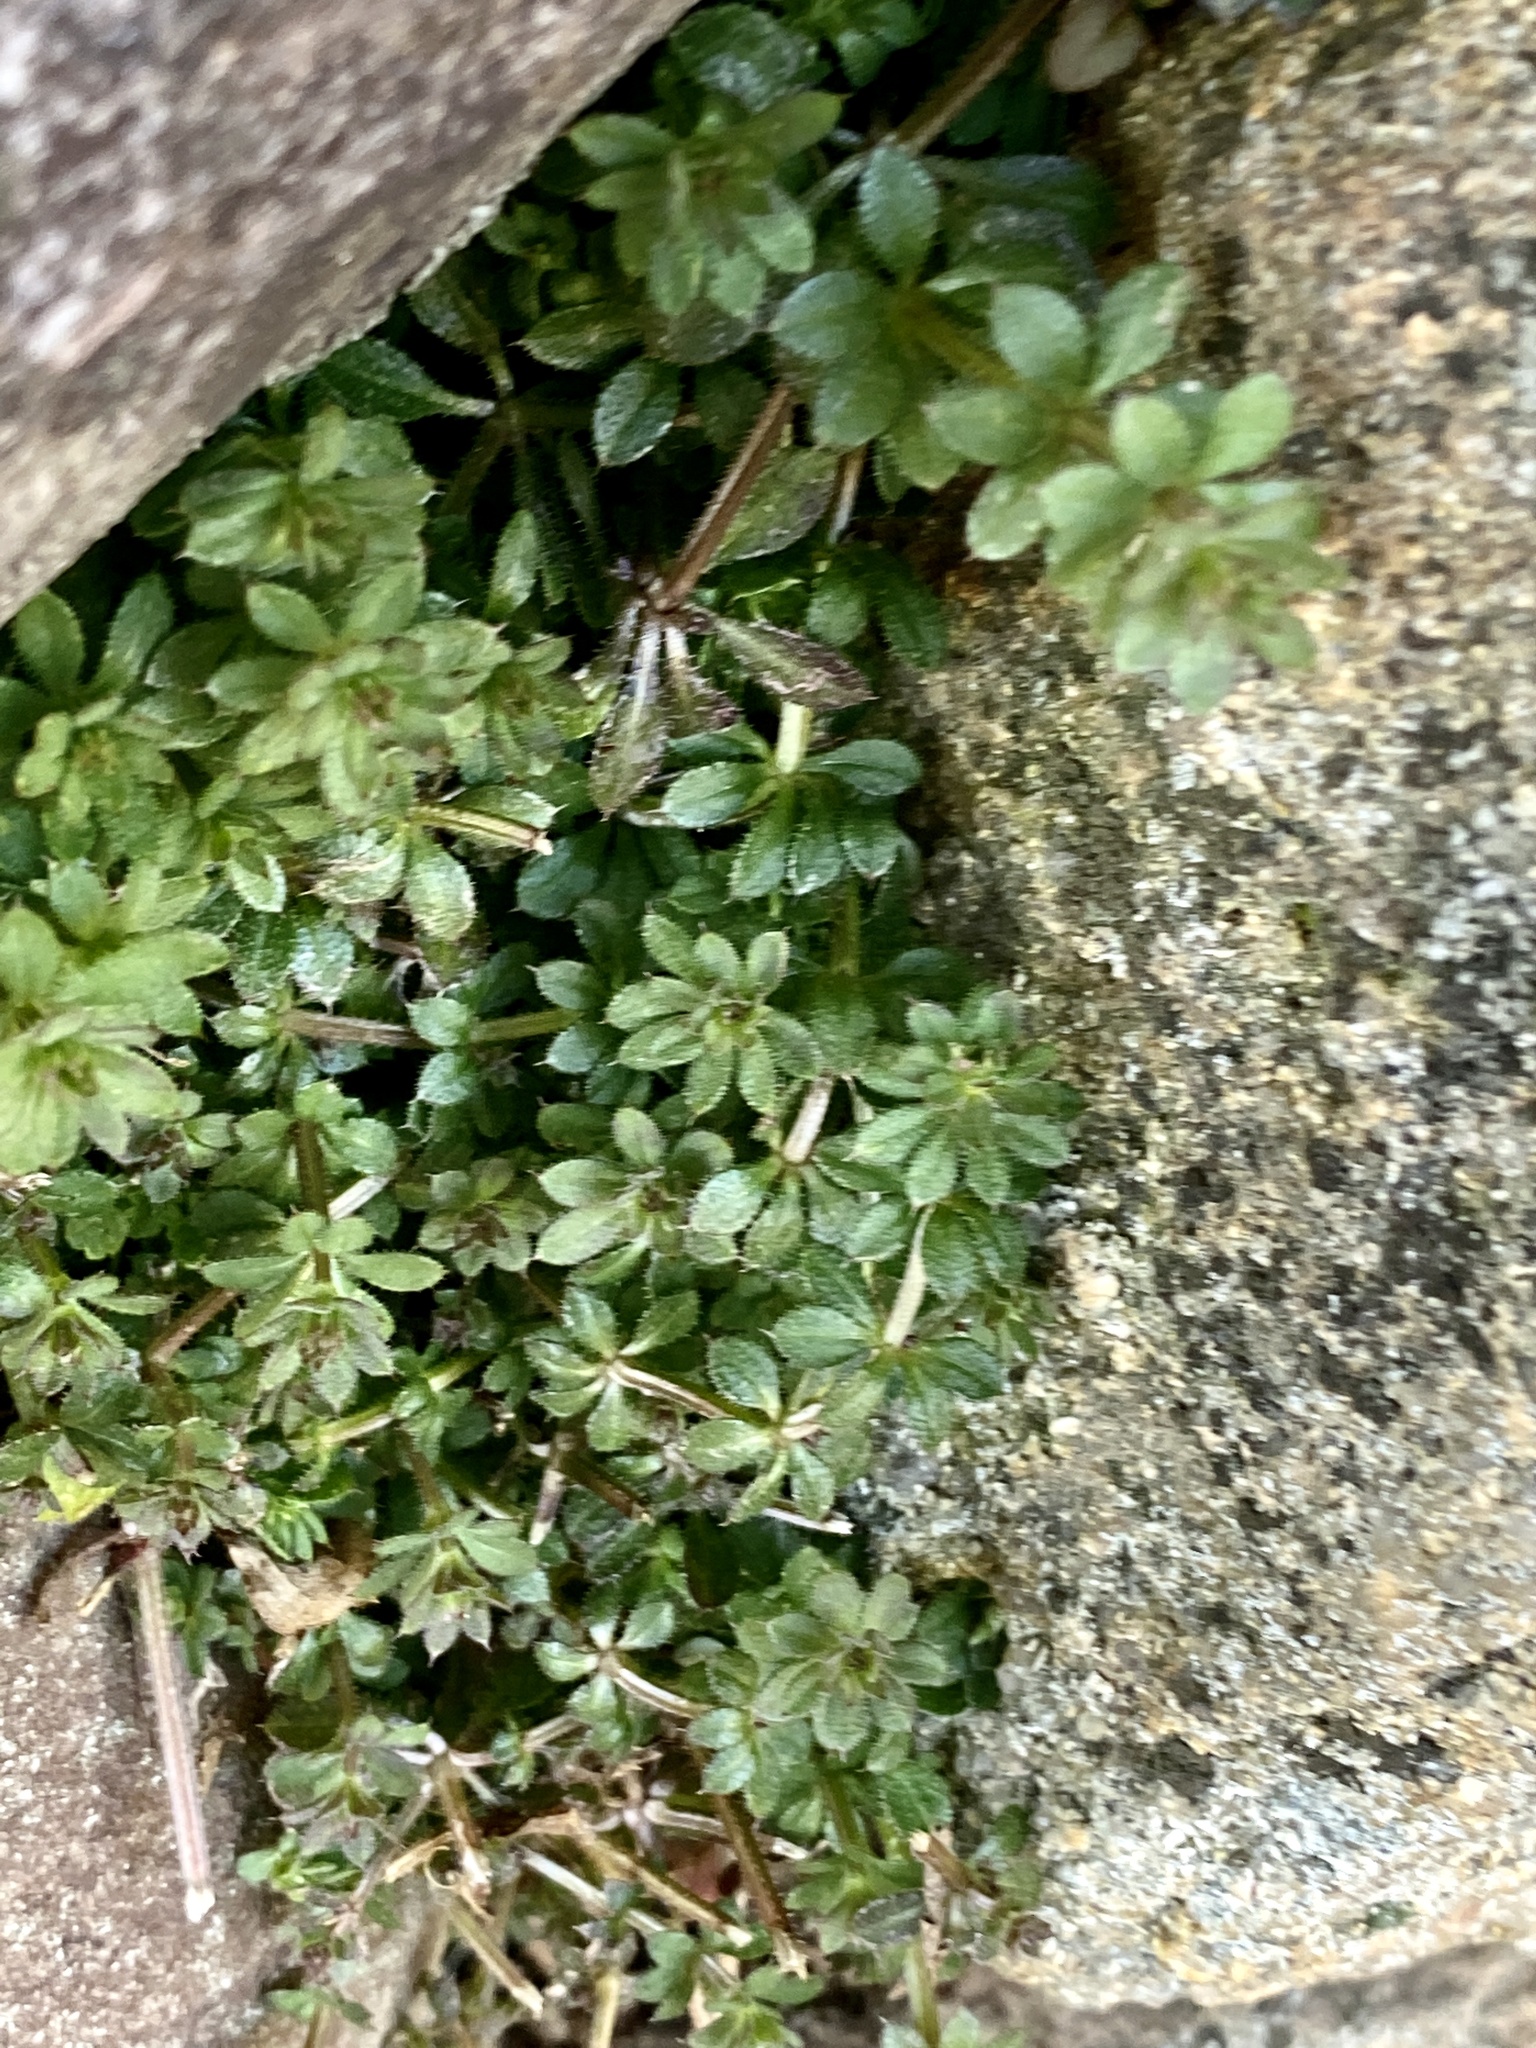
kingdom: Plantae
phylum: Tracheophyta
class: Magnoliopsida
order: Gentianales
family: Rubiaceae
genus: Galium
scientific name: Galium aparine
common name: Cleavers
